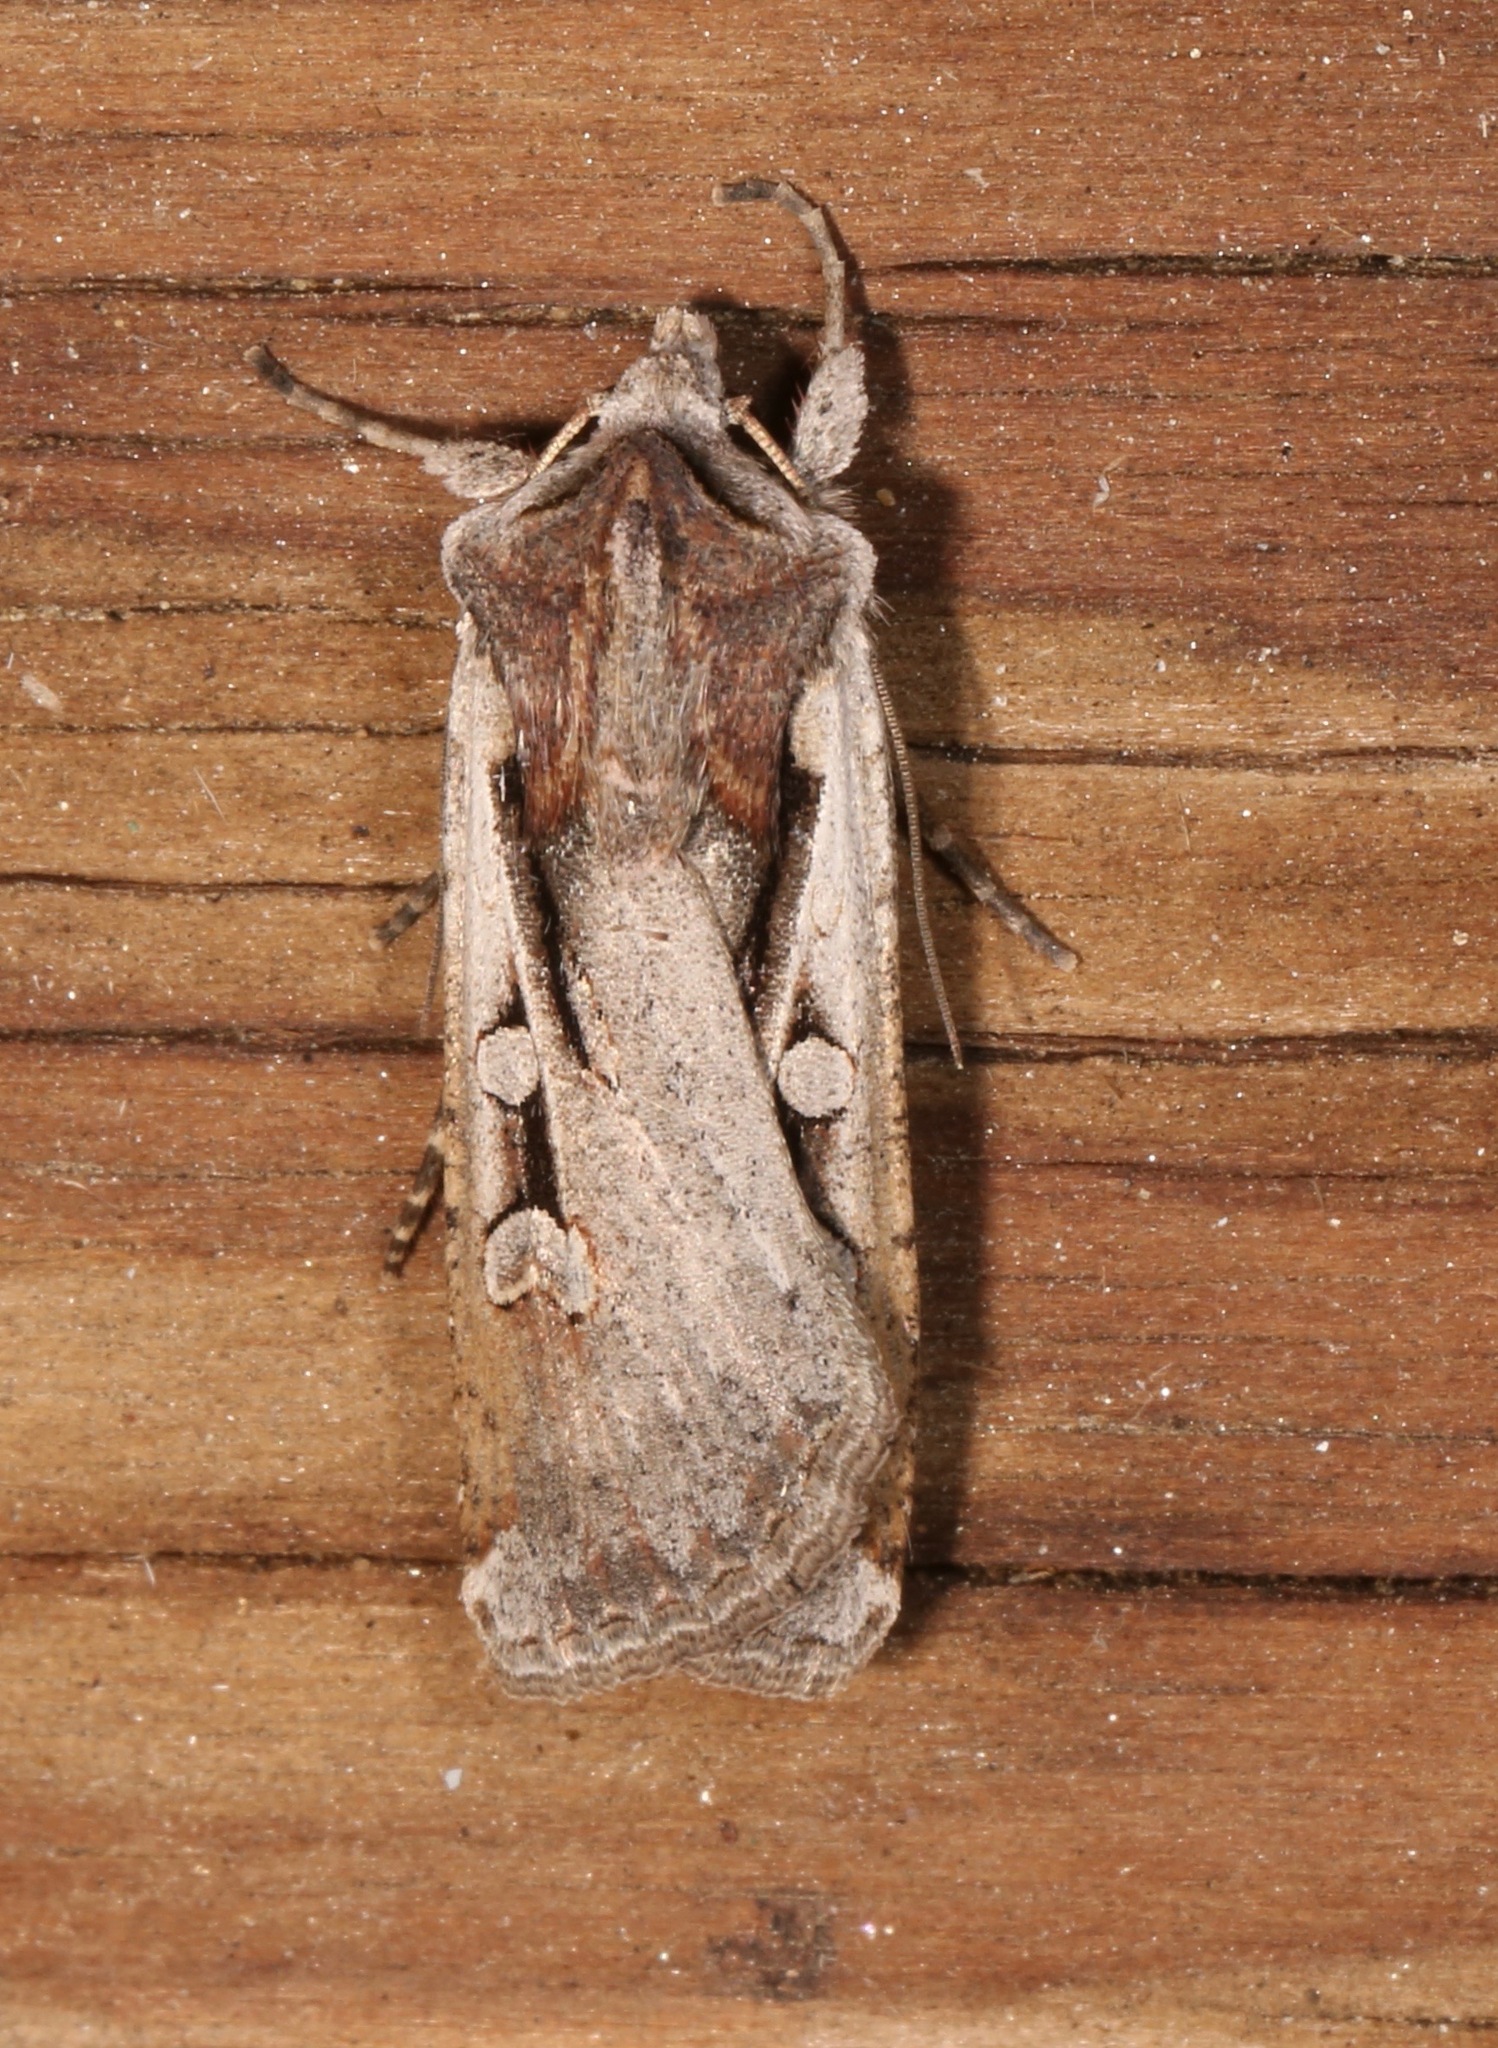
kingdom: Animalia
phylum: Arthropoda
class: Insecta
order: Lepidoptera
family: Noctuidae
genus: Hemieuxoa
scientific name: Hemieuxoa rudens
